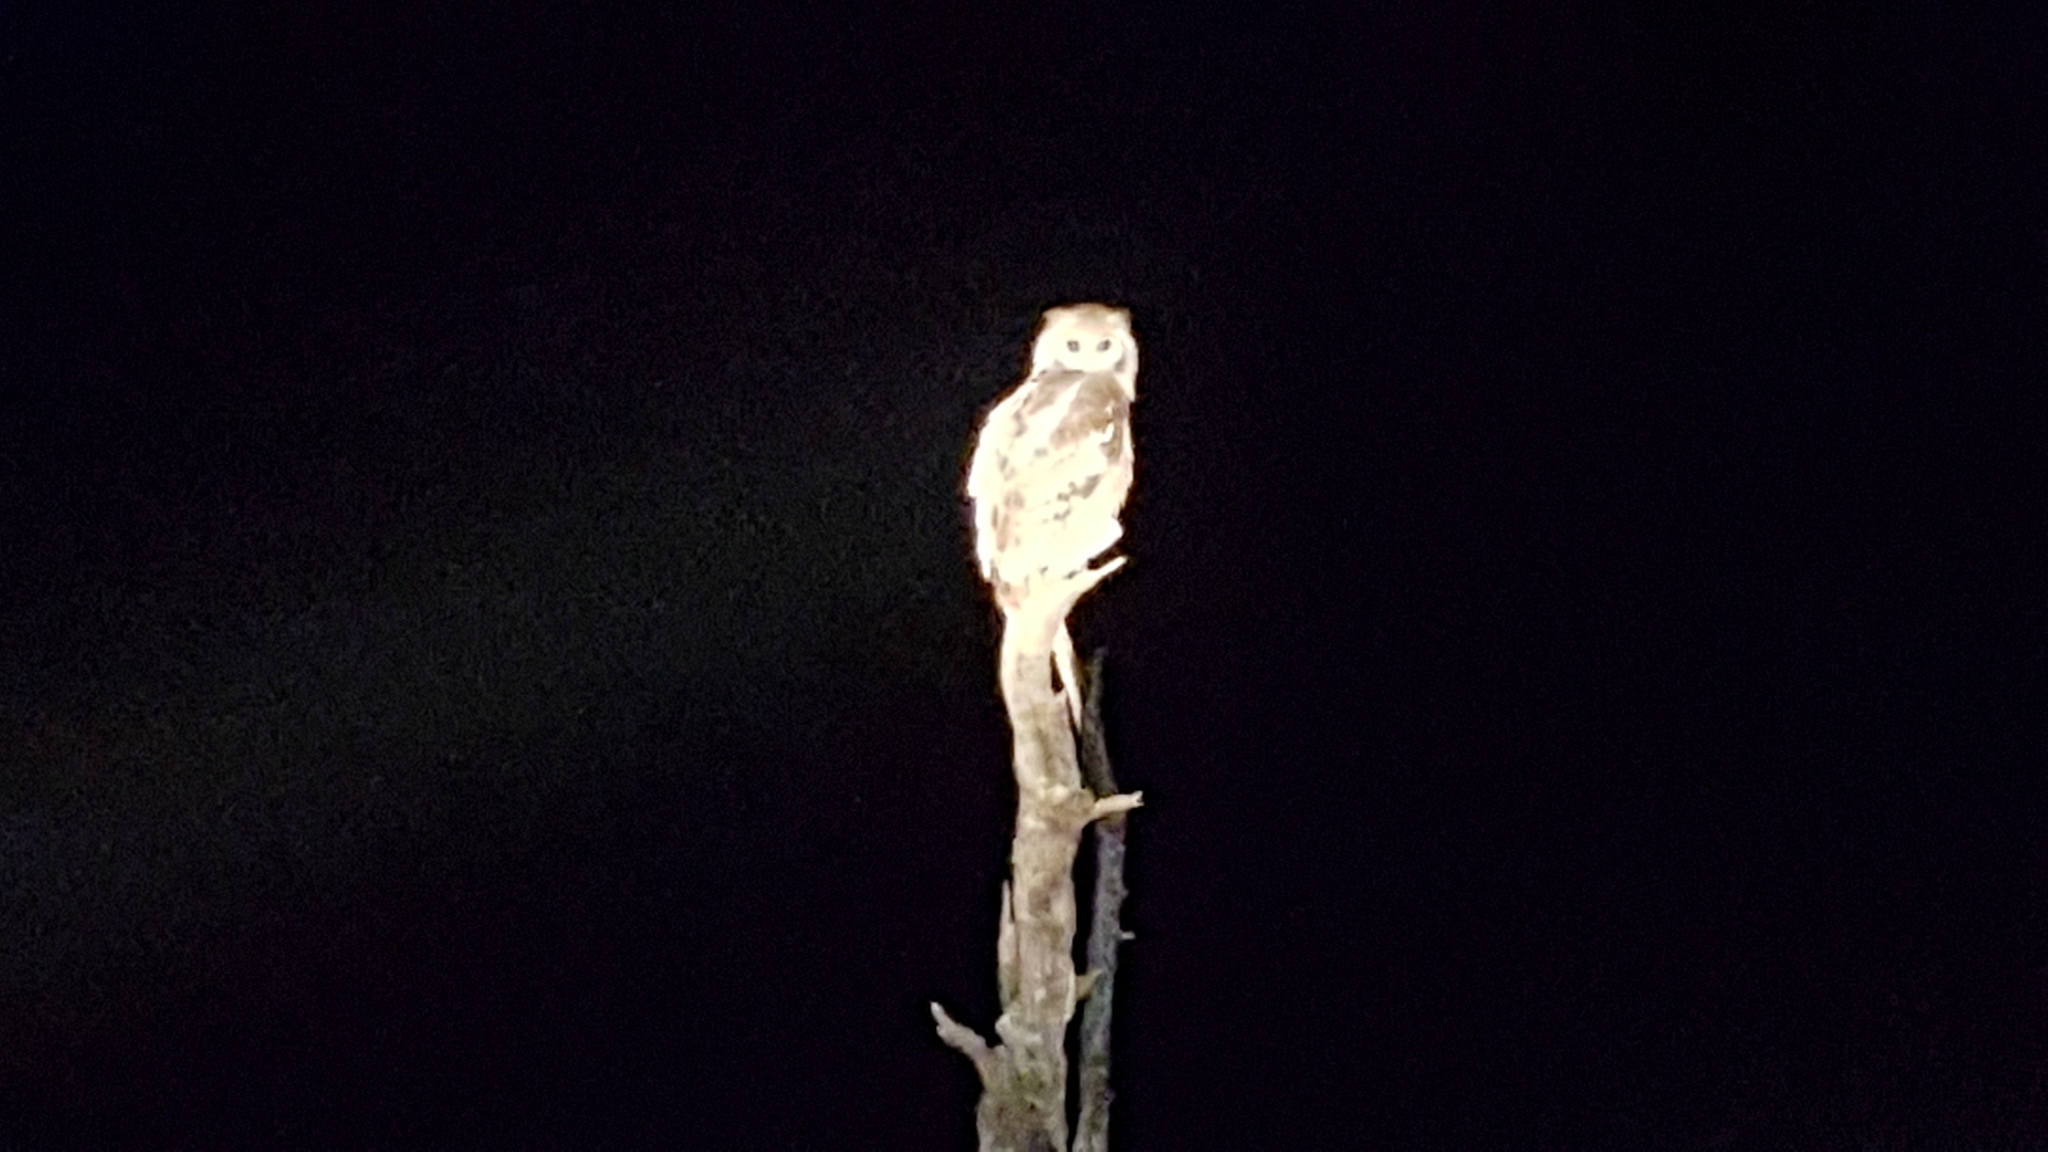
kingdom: Animalia
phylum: Chordata
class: Aves
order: Strigiformes
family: Strigidae
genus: Bubo
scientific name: Bubo lacteus
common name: Verreaux's eagle-owl
